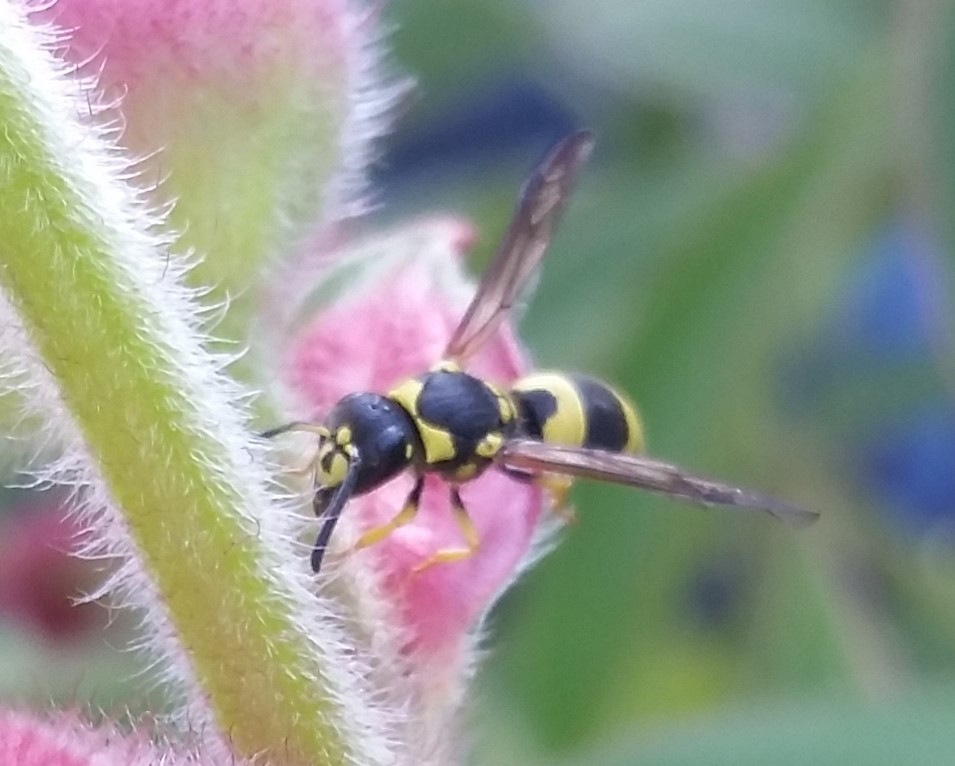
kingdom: Animalia
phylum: Arthropoda
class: Insecta
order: Hymenoptera
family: Vespidae
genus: Ancistrocerus
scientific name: Ancistrocerus gazella
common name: European tube wasp
